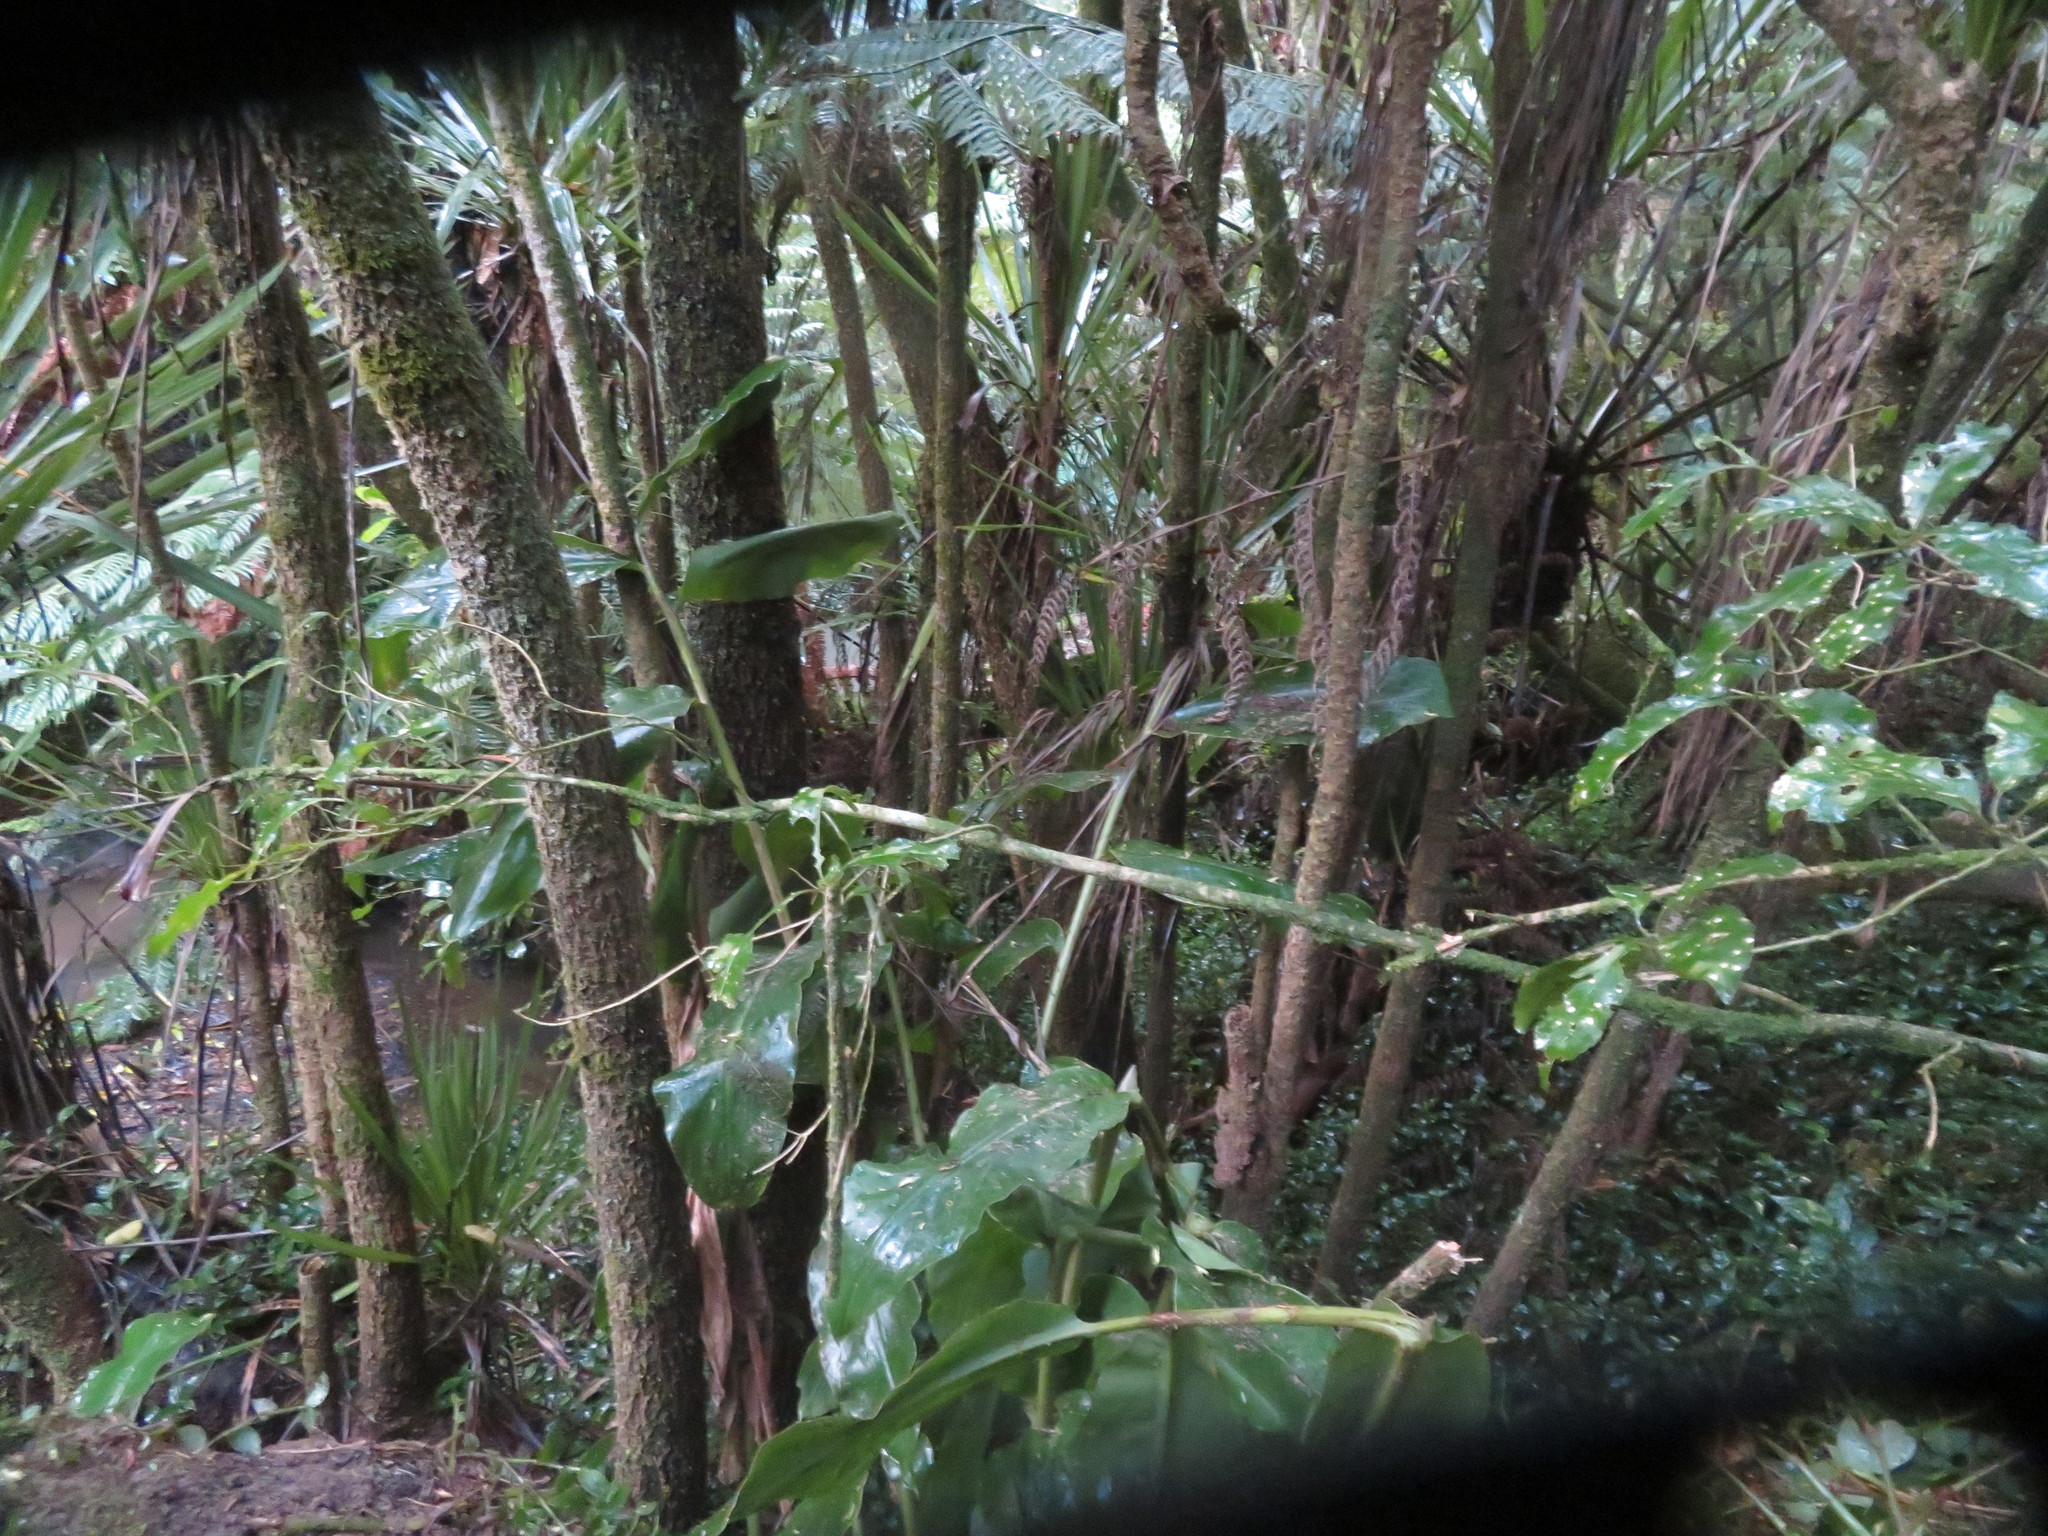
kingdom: Plantae
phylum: Tracheophyta
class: Liliopsida
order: Commelinales
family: Commelinaceae
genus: Tradescantia
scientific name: Tradescantia fluminensis
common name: Wandering-jew
